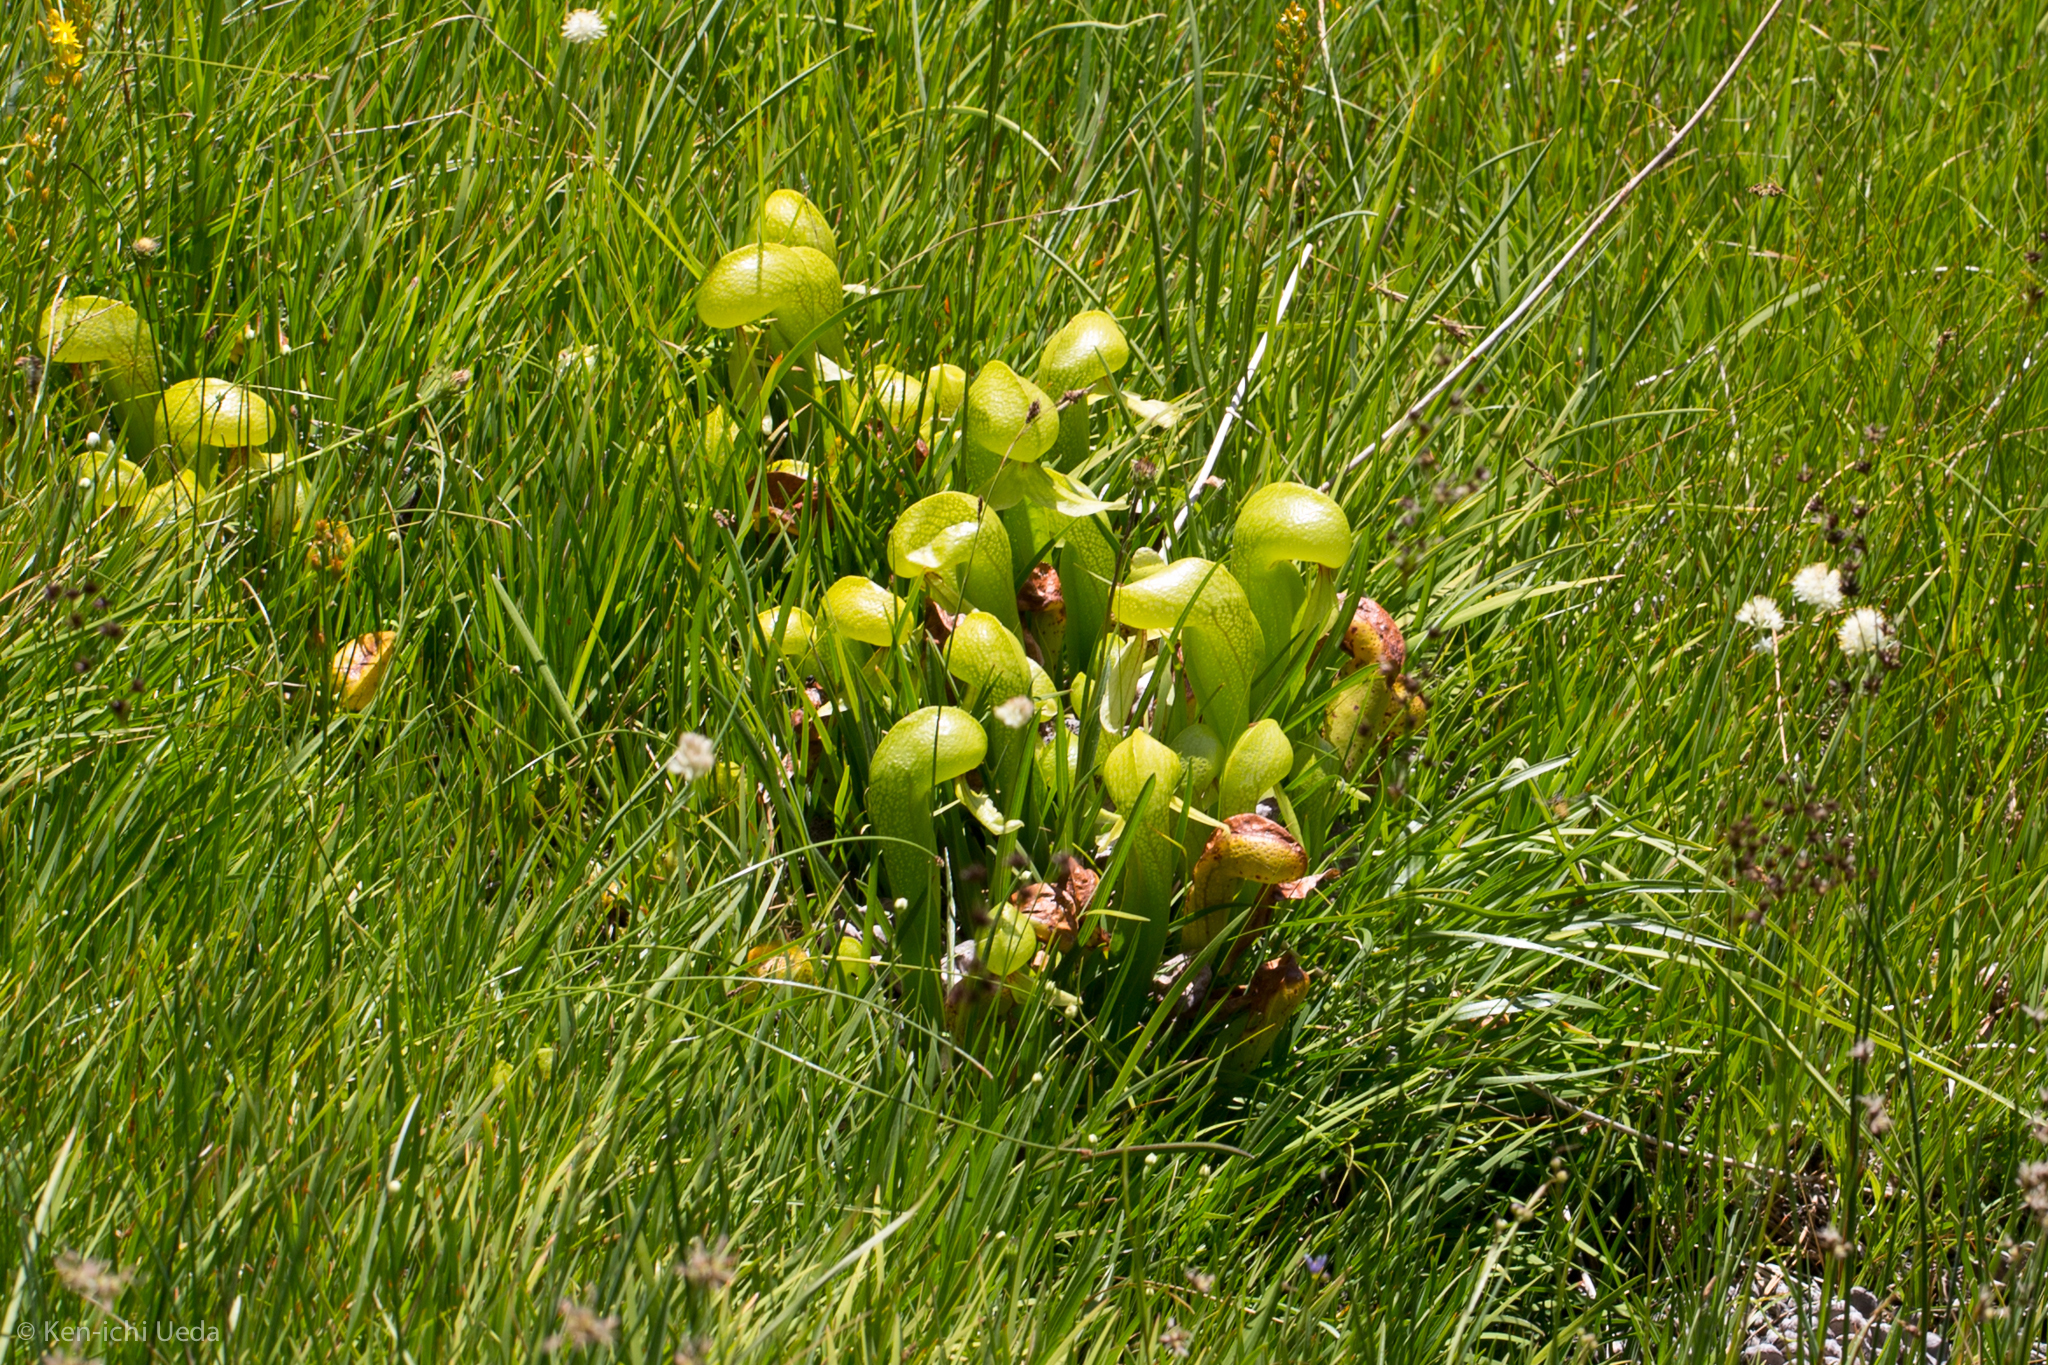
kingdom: Plantae
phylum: Tracheophyta
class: Magnoliopsida
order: Ericales
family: Sarraceniaceae
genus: Darlingtonia
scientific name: Darlingtonia californica
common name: California pitcher plant
